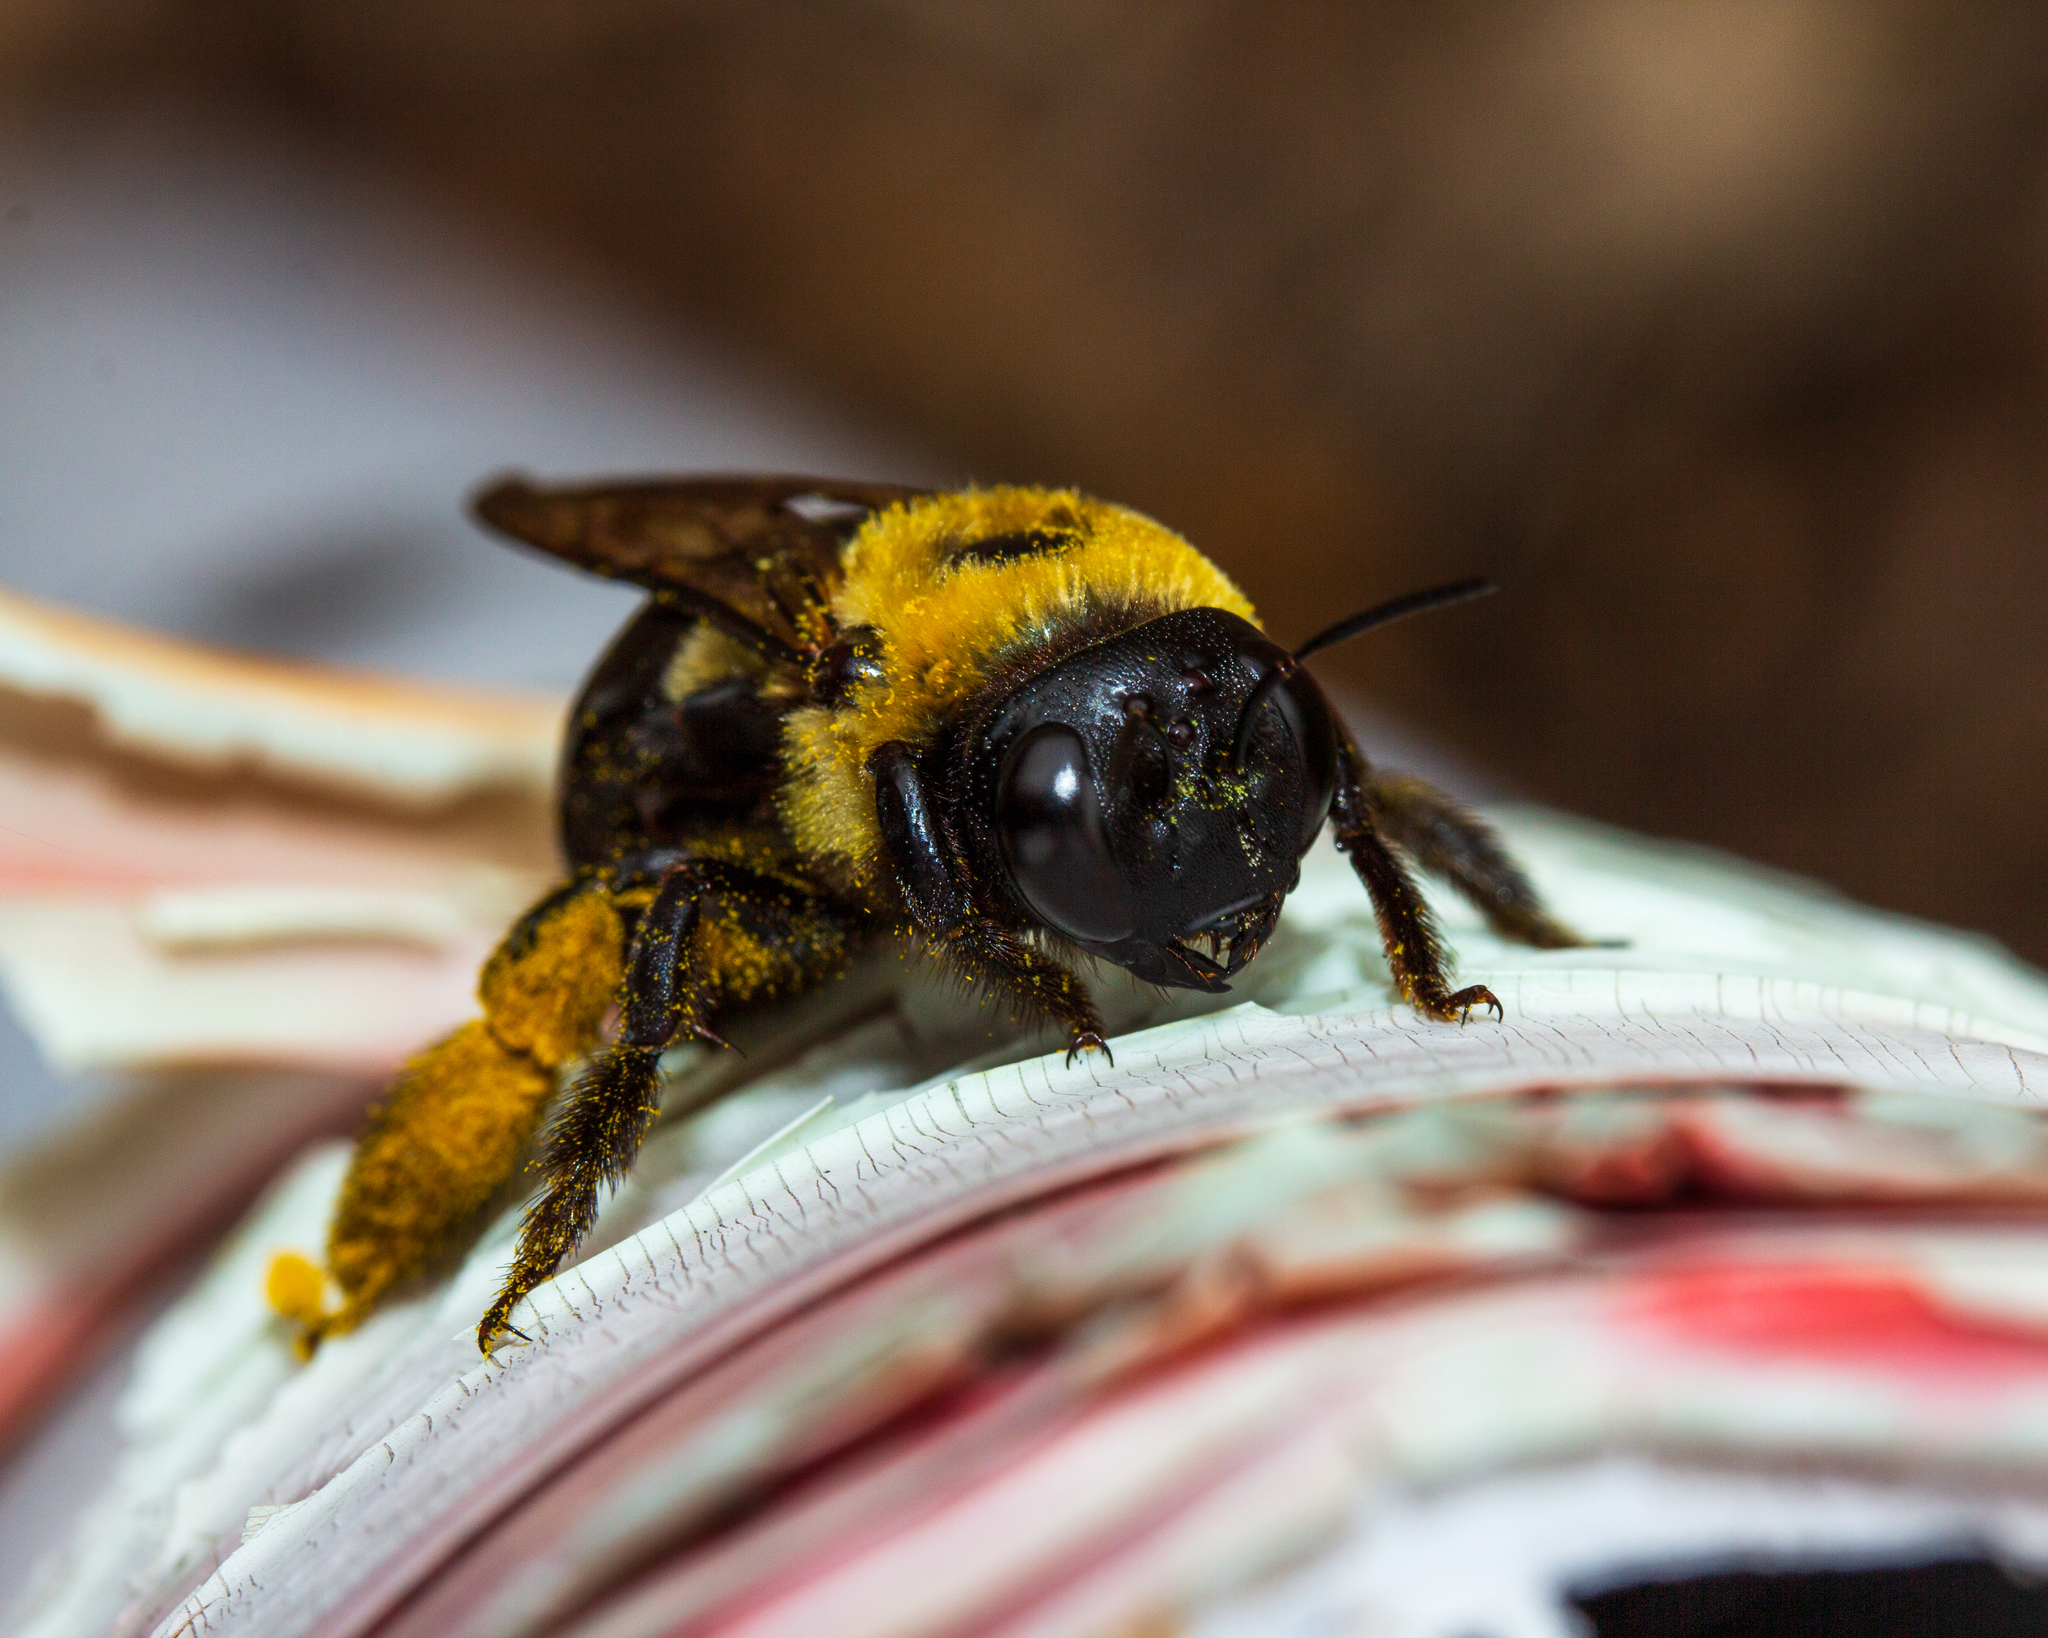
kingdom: Animalia
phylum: Arthropoda
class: Insecta
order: Hymenoptera
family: Apidae
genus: Xylocopa
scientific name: Xylocopa virginica
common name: Carpenter bee
